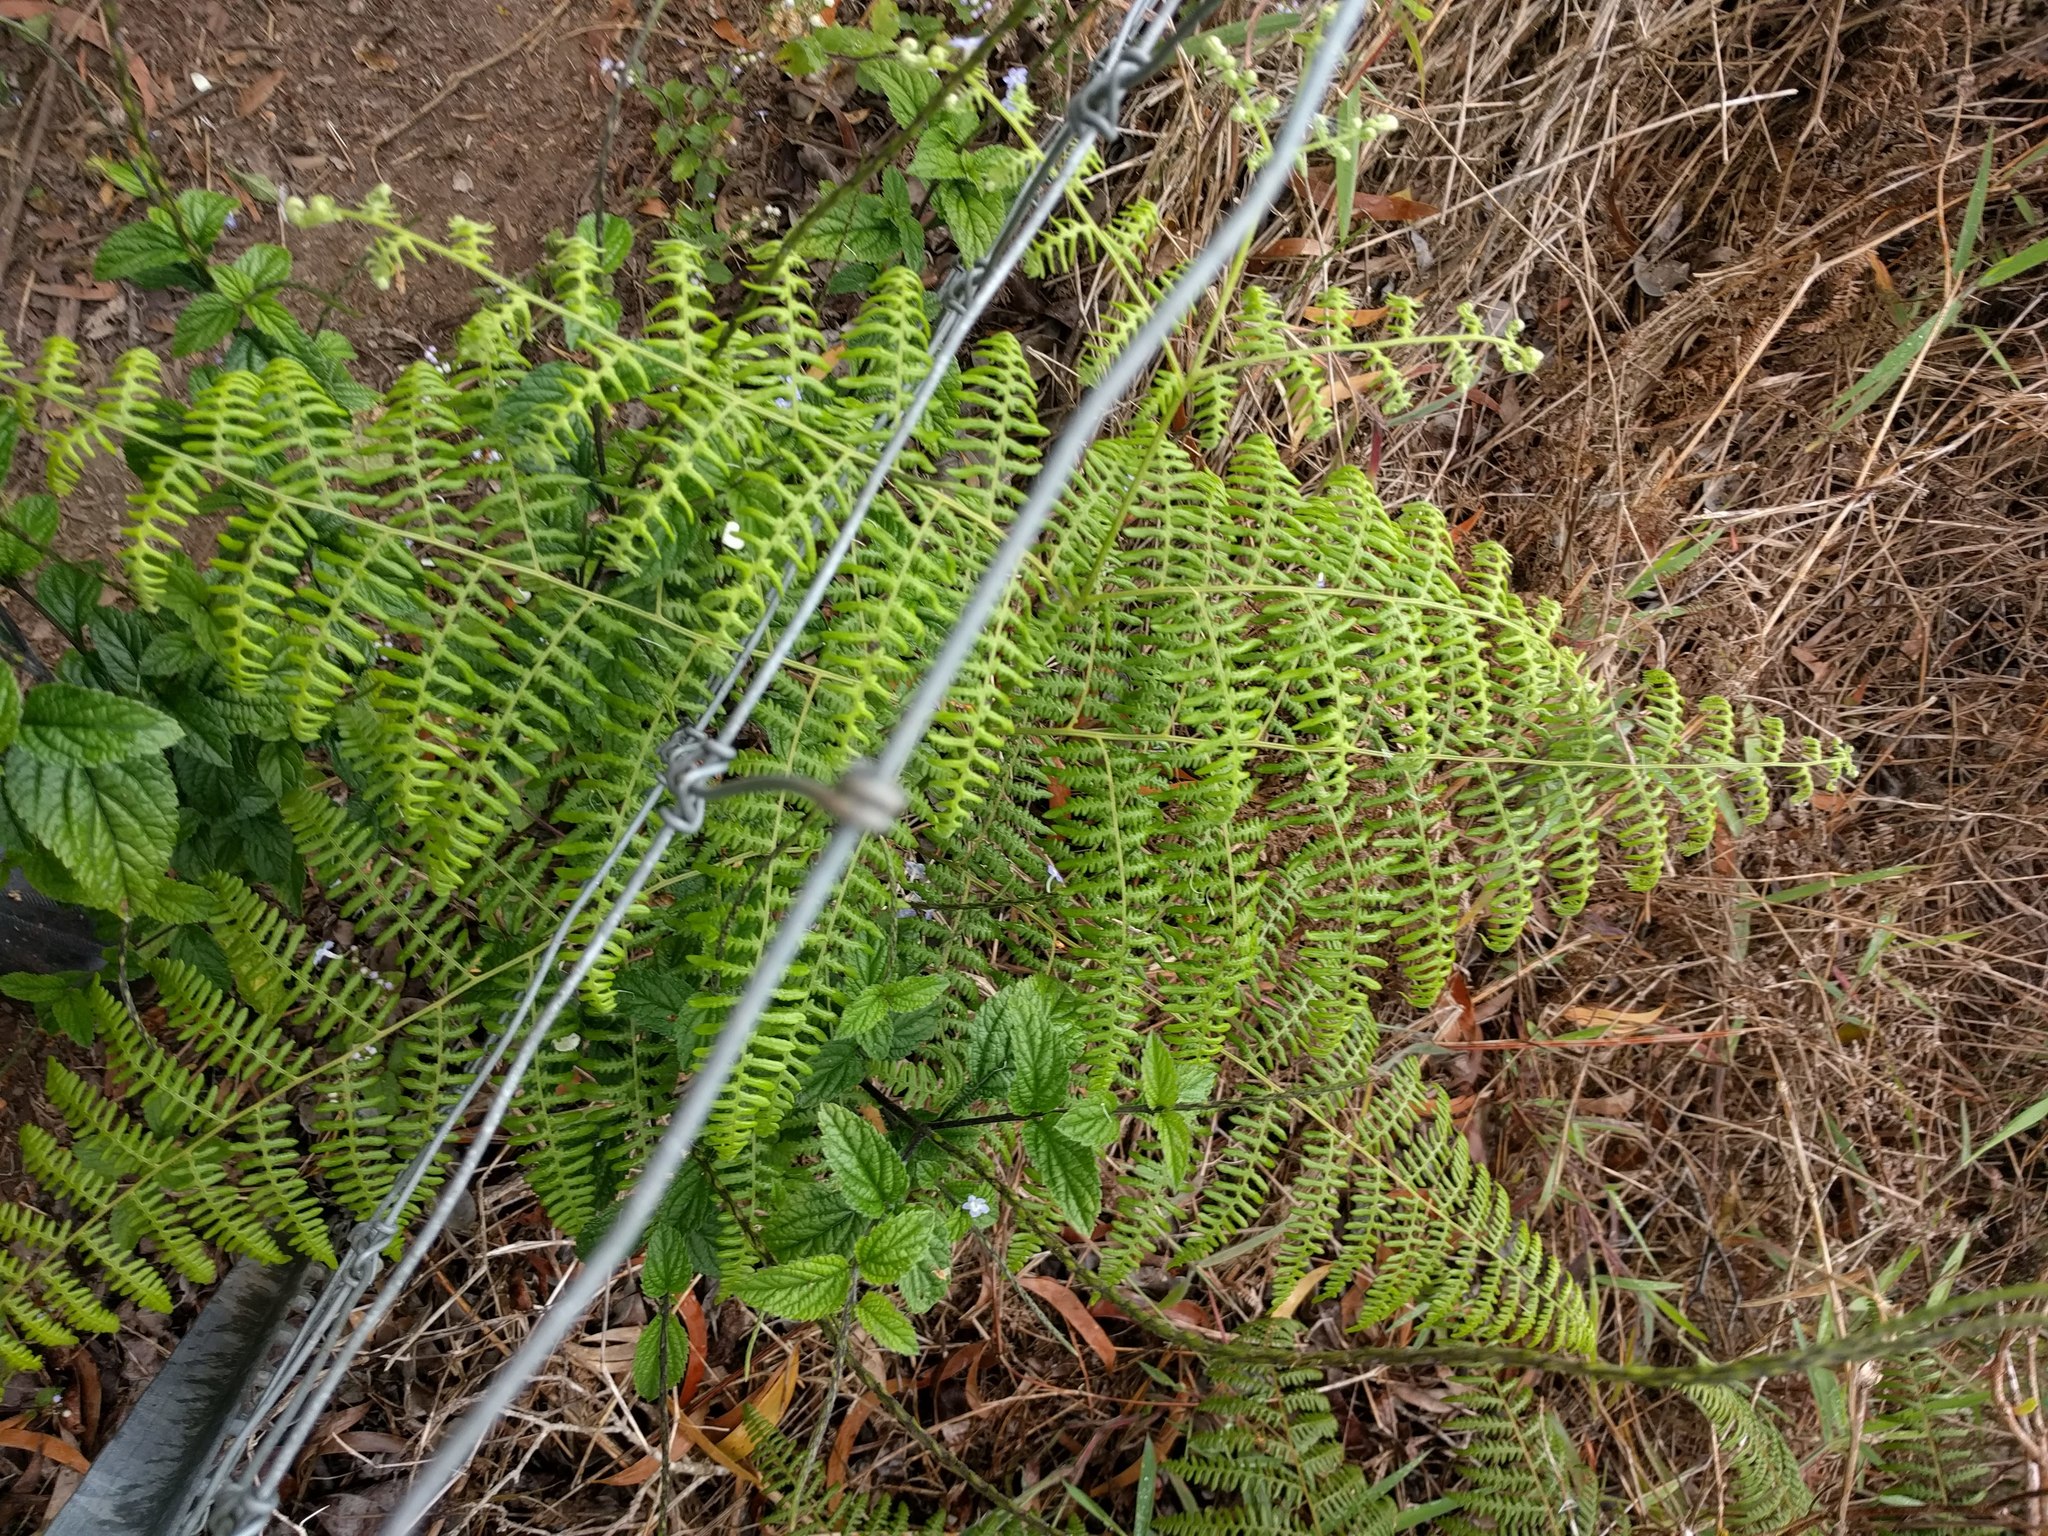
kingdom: Plantae
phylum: Tracheophyta
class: Polypodiopsida
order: Polypodiales
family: Dennstaedtiaceae
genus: Pteridium
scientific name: Pteridium aquilinum
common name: Bracken
